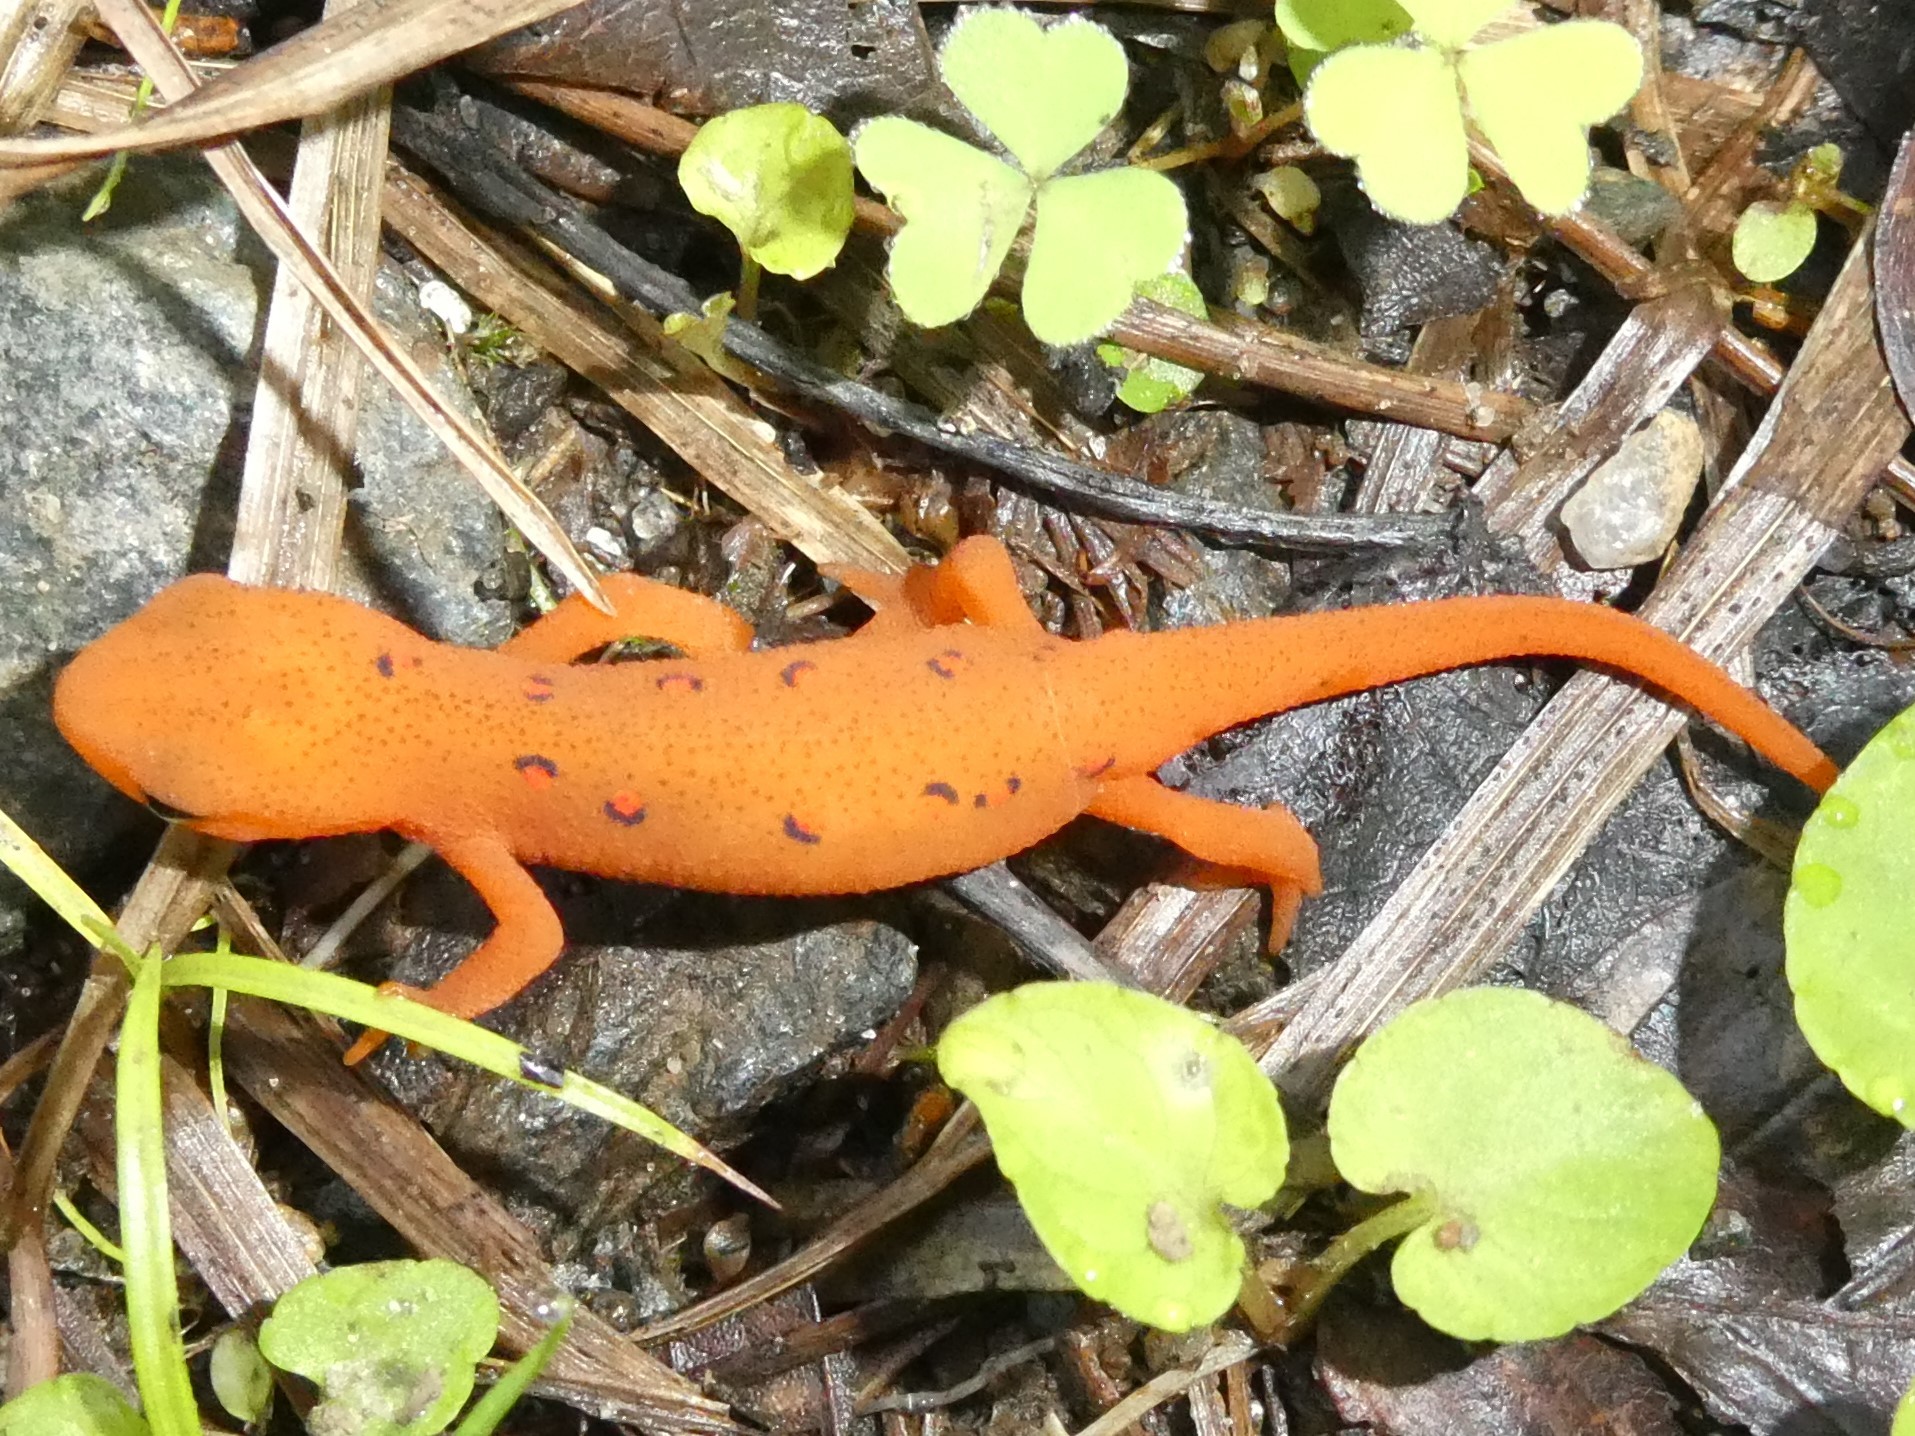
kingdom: Animalia
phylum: Chordata
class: Amphibia
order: Caudata
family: Salamandridae
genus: Notophthalmus
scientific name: Notophthalmus viridescens
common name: Eastern newt
